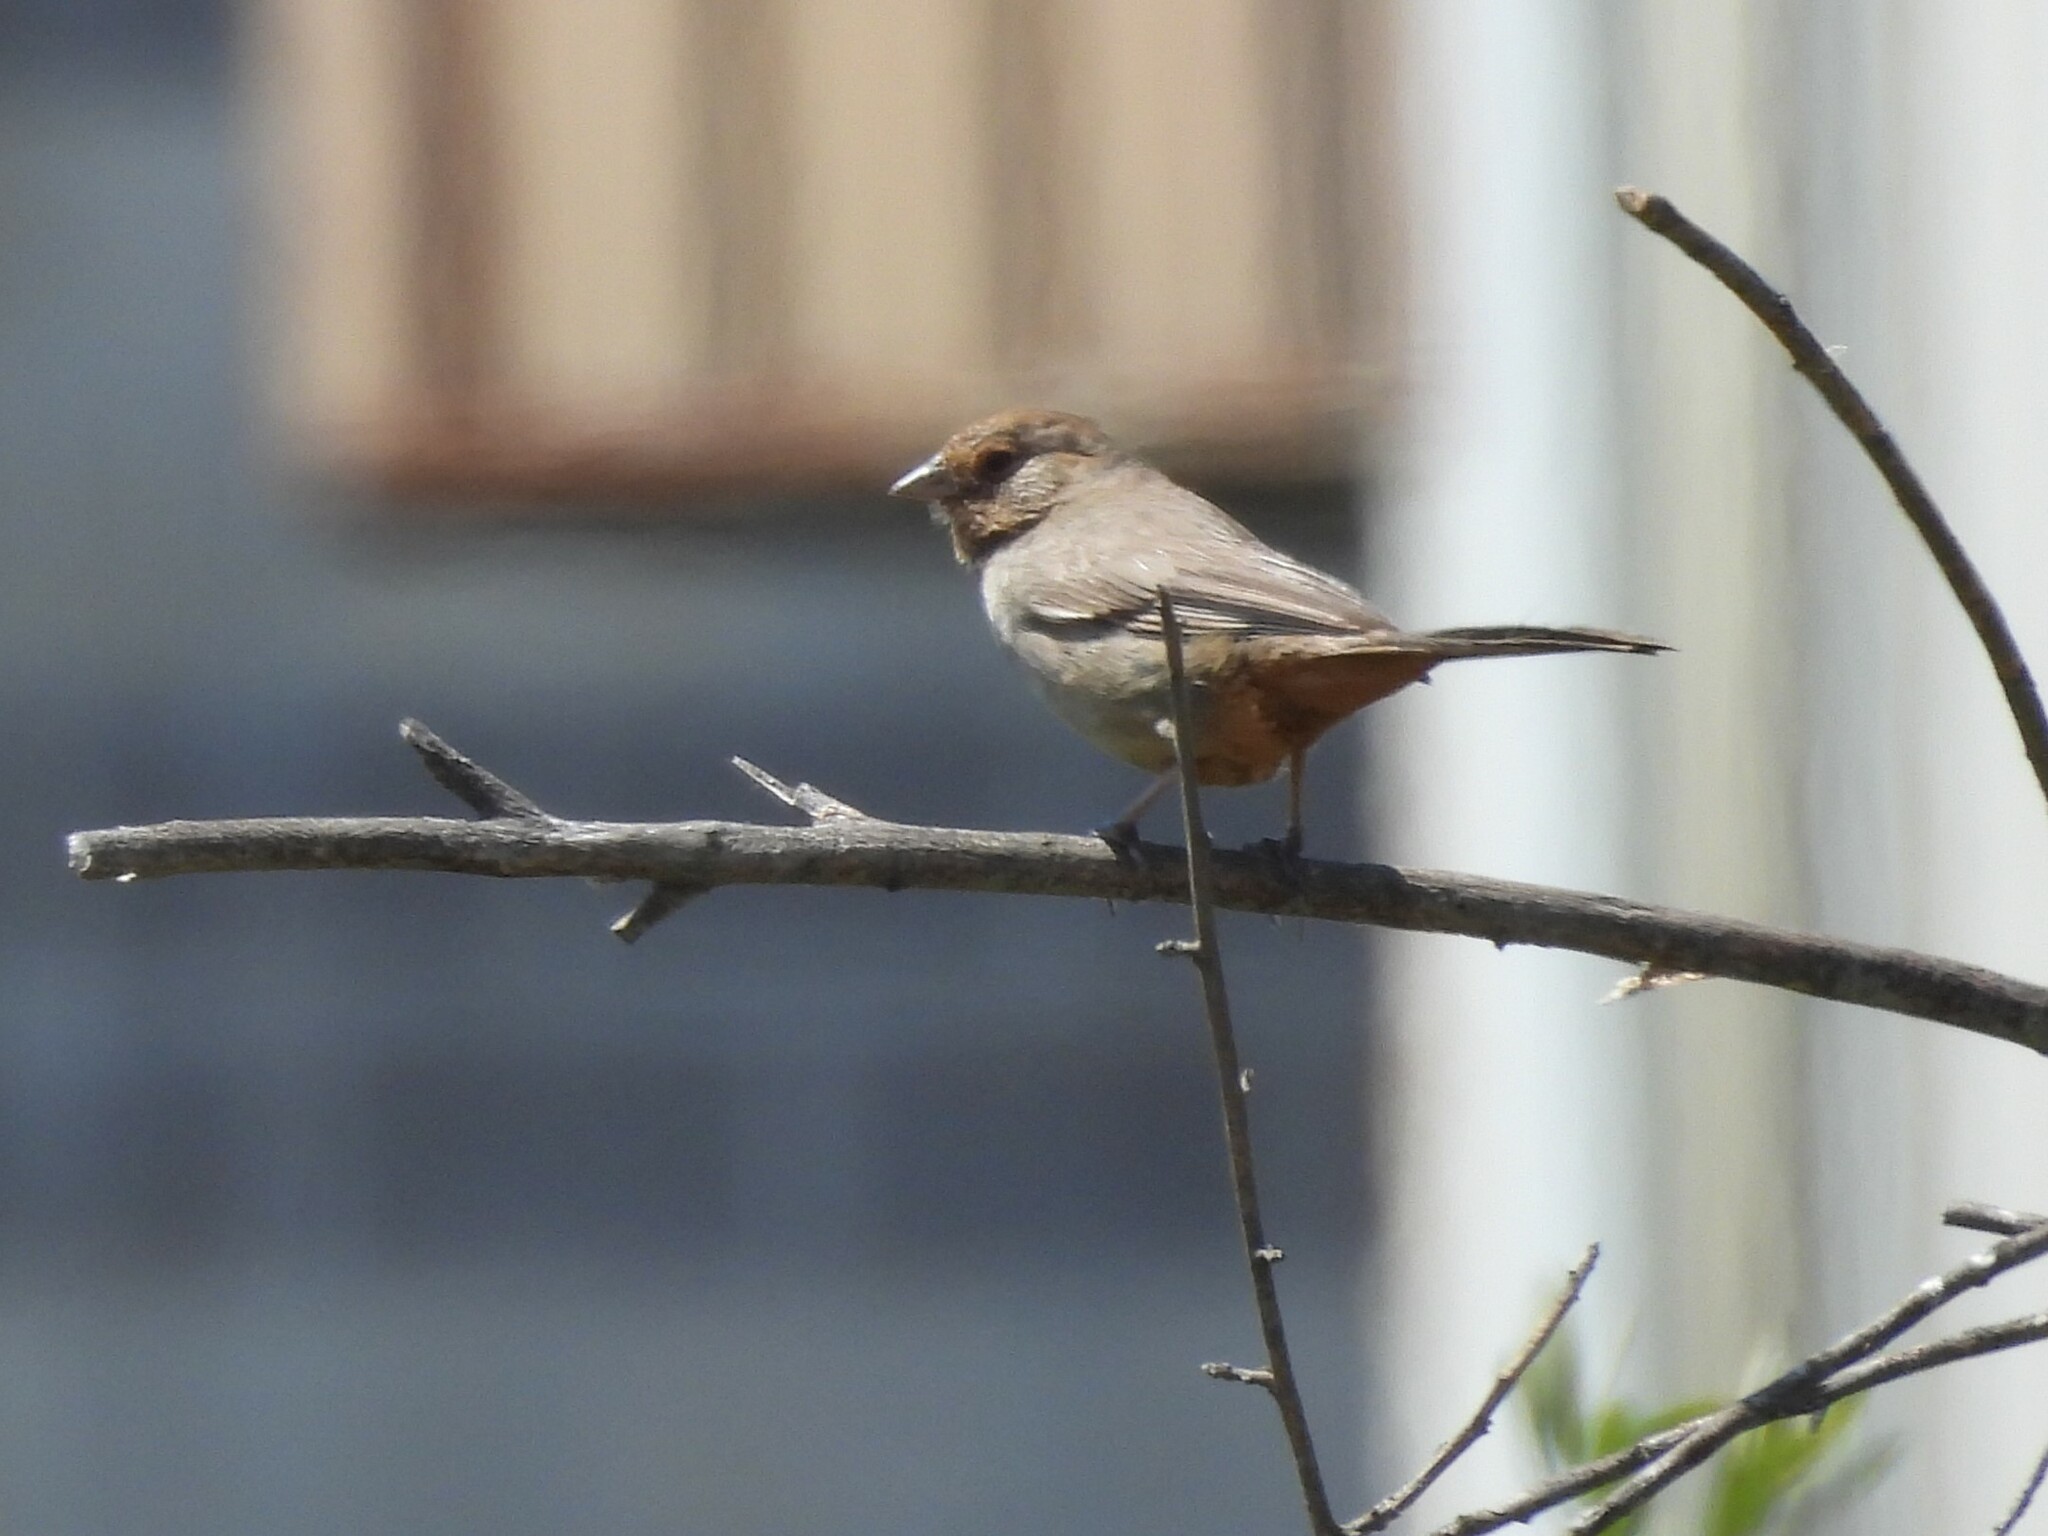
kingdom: Animalia
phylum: Chordata
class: Aves
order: Passeriformes
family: Passerellidae
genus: Melozone
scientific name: Melozone crissalis
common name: California towhee
